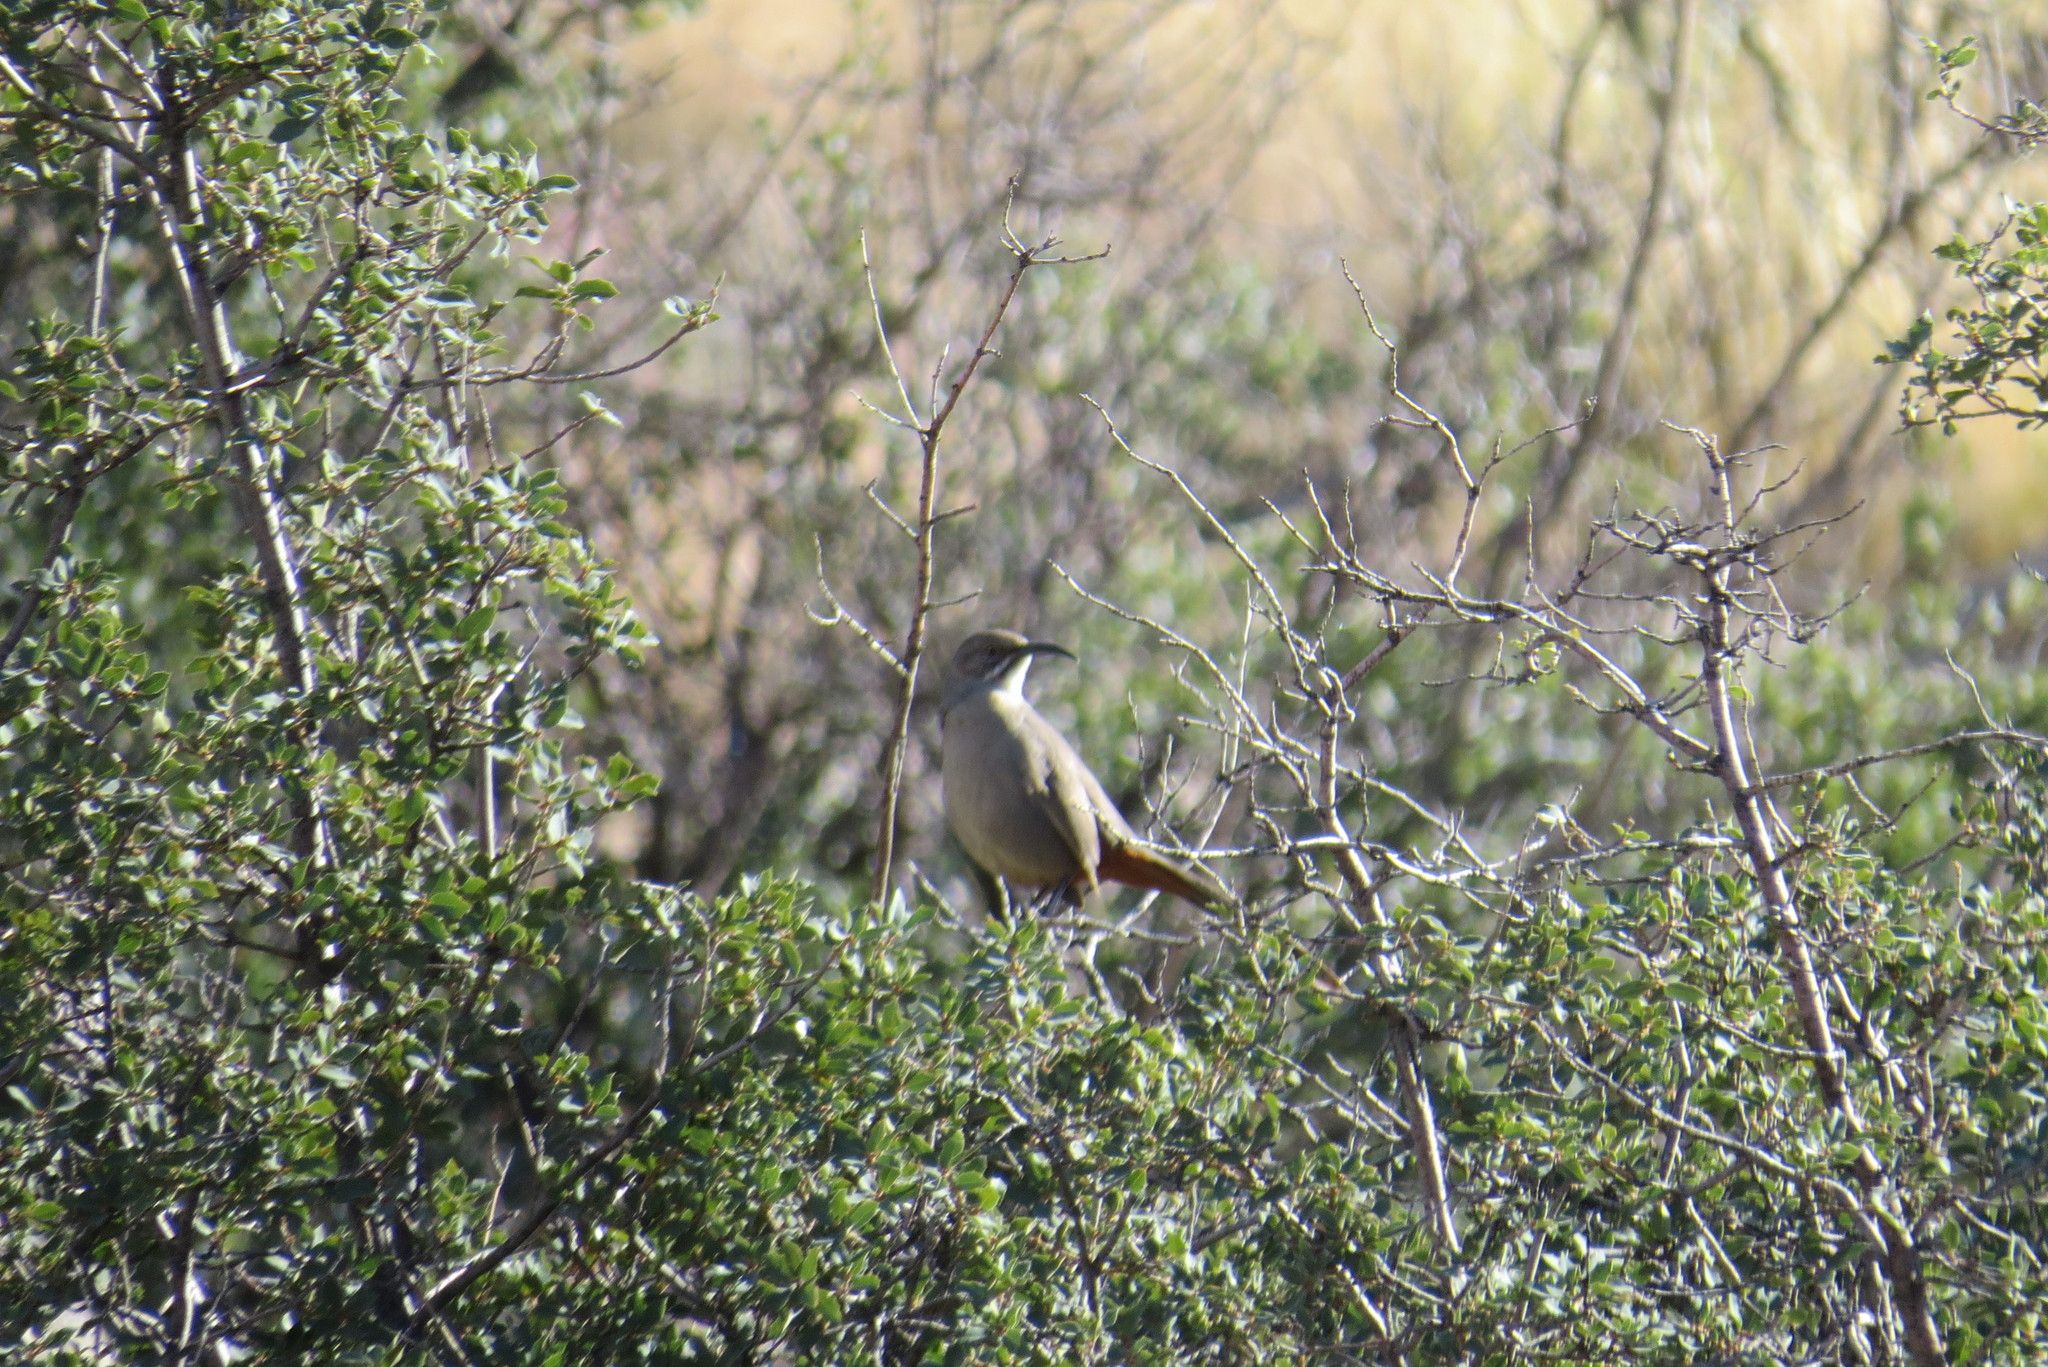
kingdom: Animalia
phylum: Chordata
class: Aves
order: Passeriformes
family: Mimidae
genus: Toxostoma
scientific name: Toxostoma crissale
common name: Crissal thrasher
